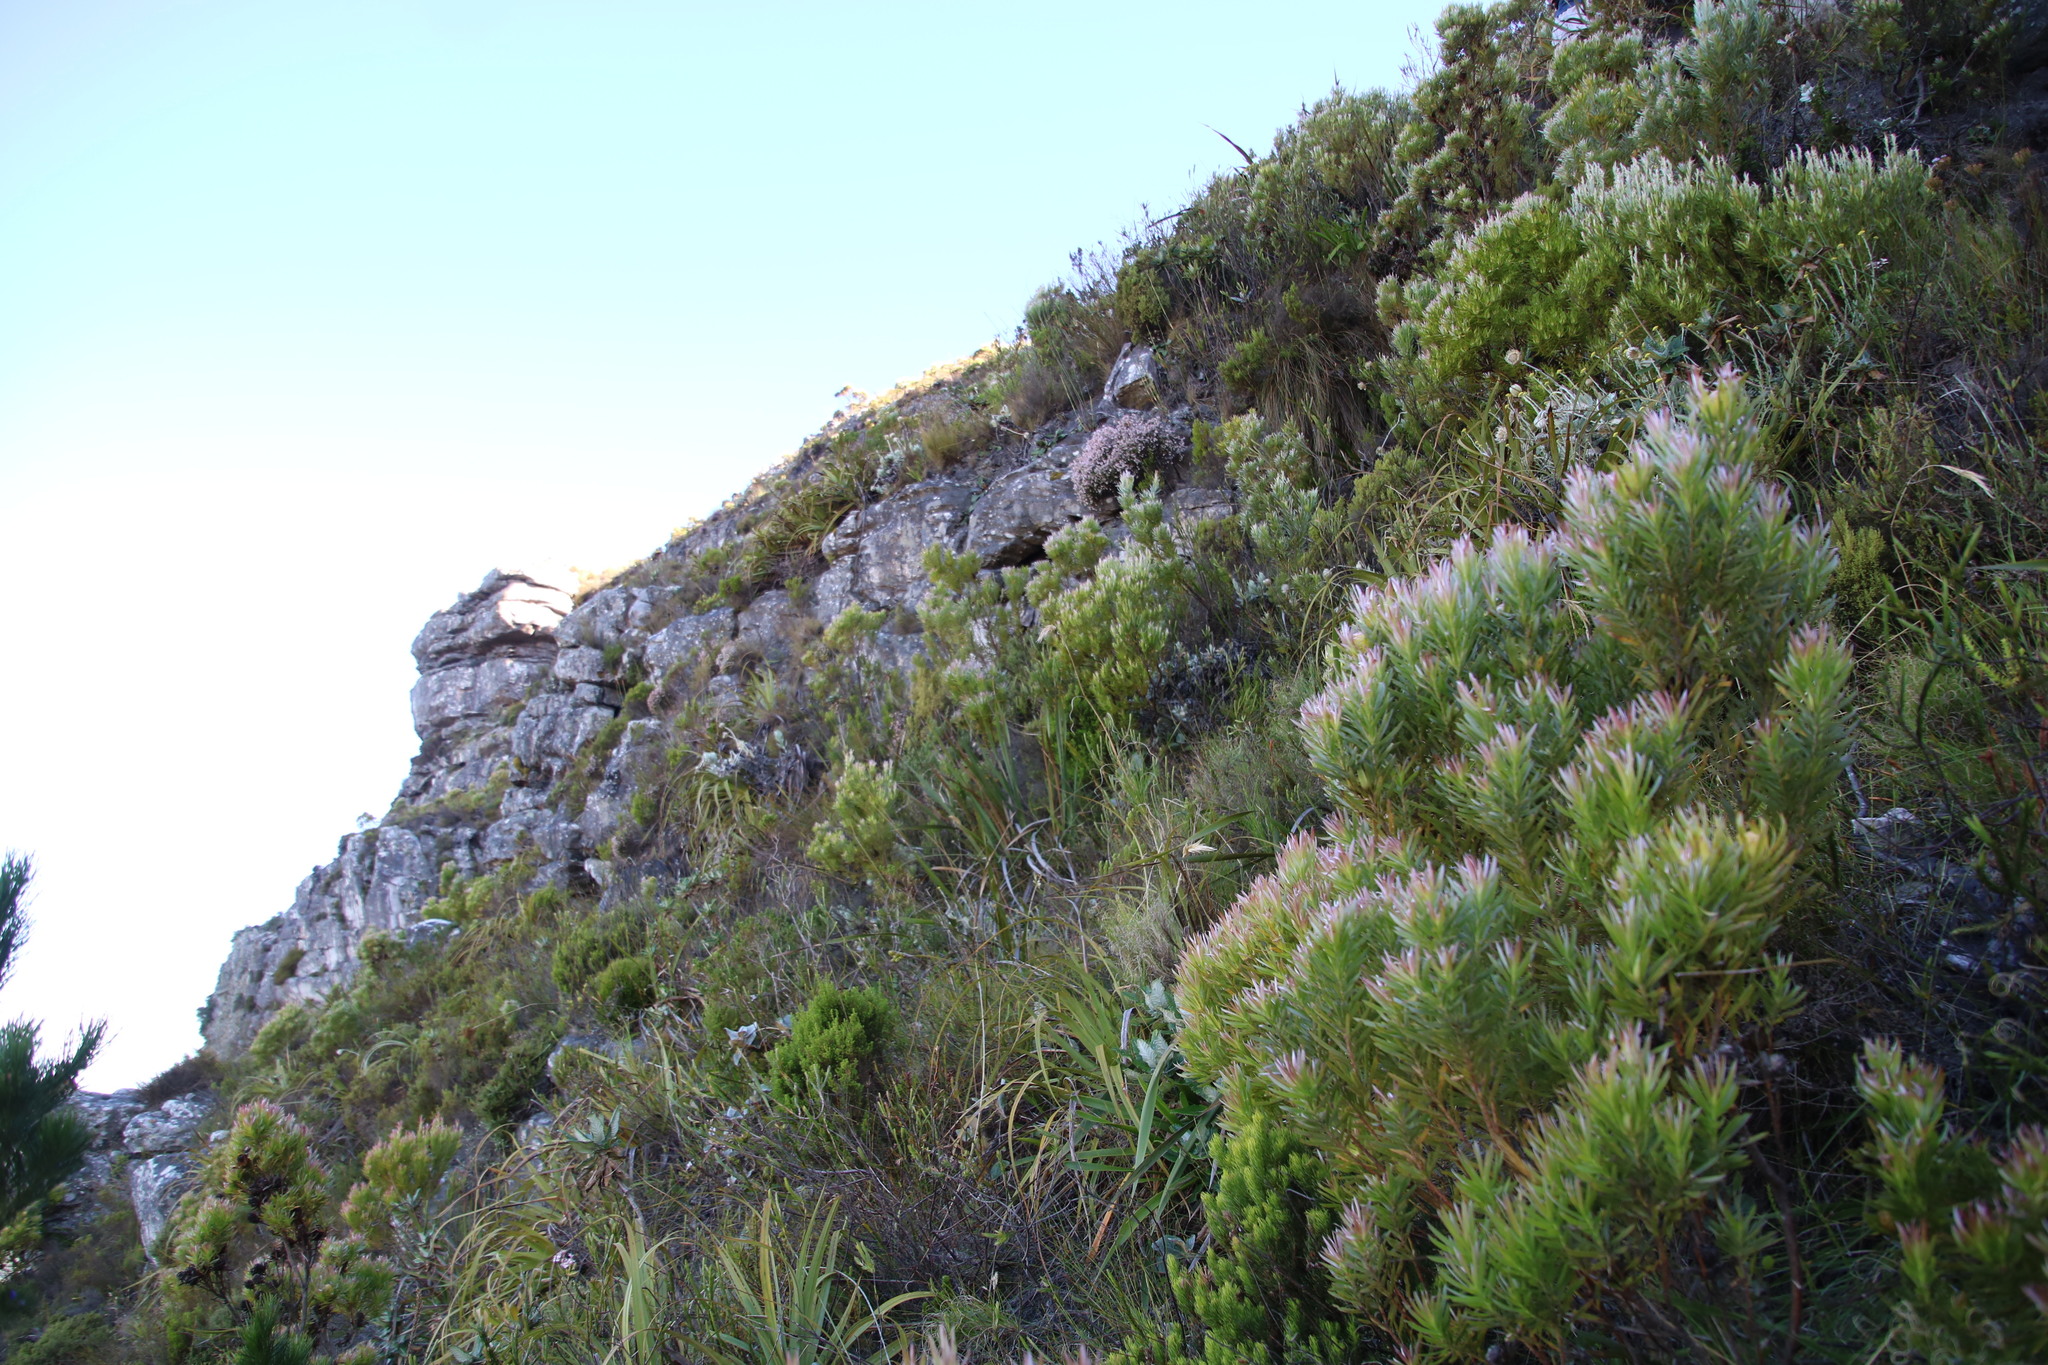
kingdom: Plantae
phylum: Tracheophyta
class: Magnoliopsida
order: Proteales
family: Proteaceae
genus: Leucadendron
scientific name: Leucadendron xanthoconus
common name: Sickle-leaf conebush
